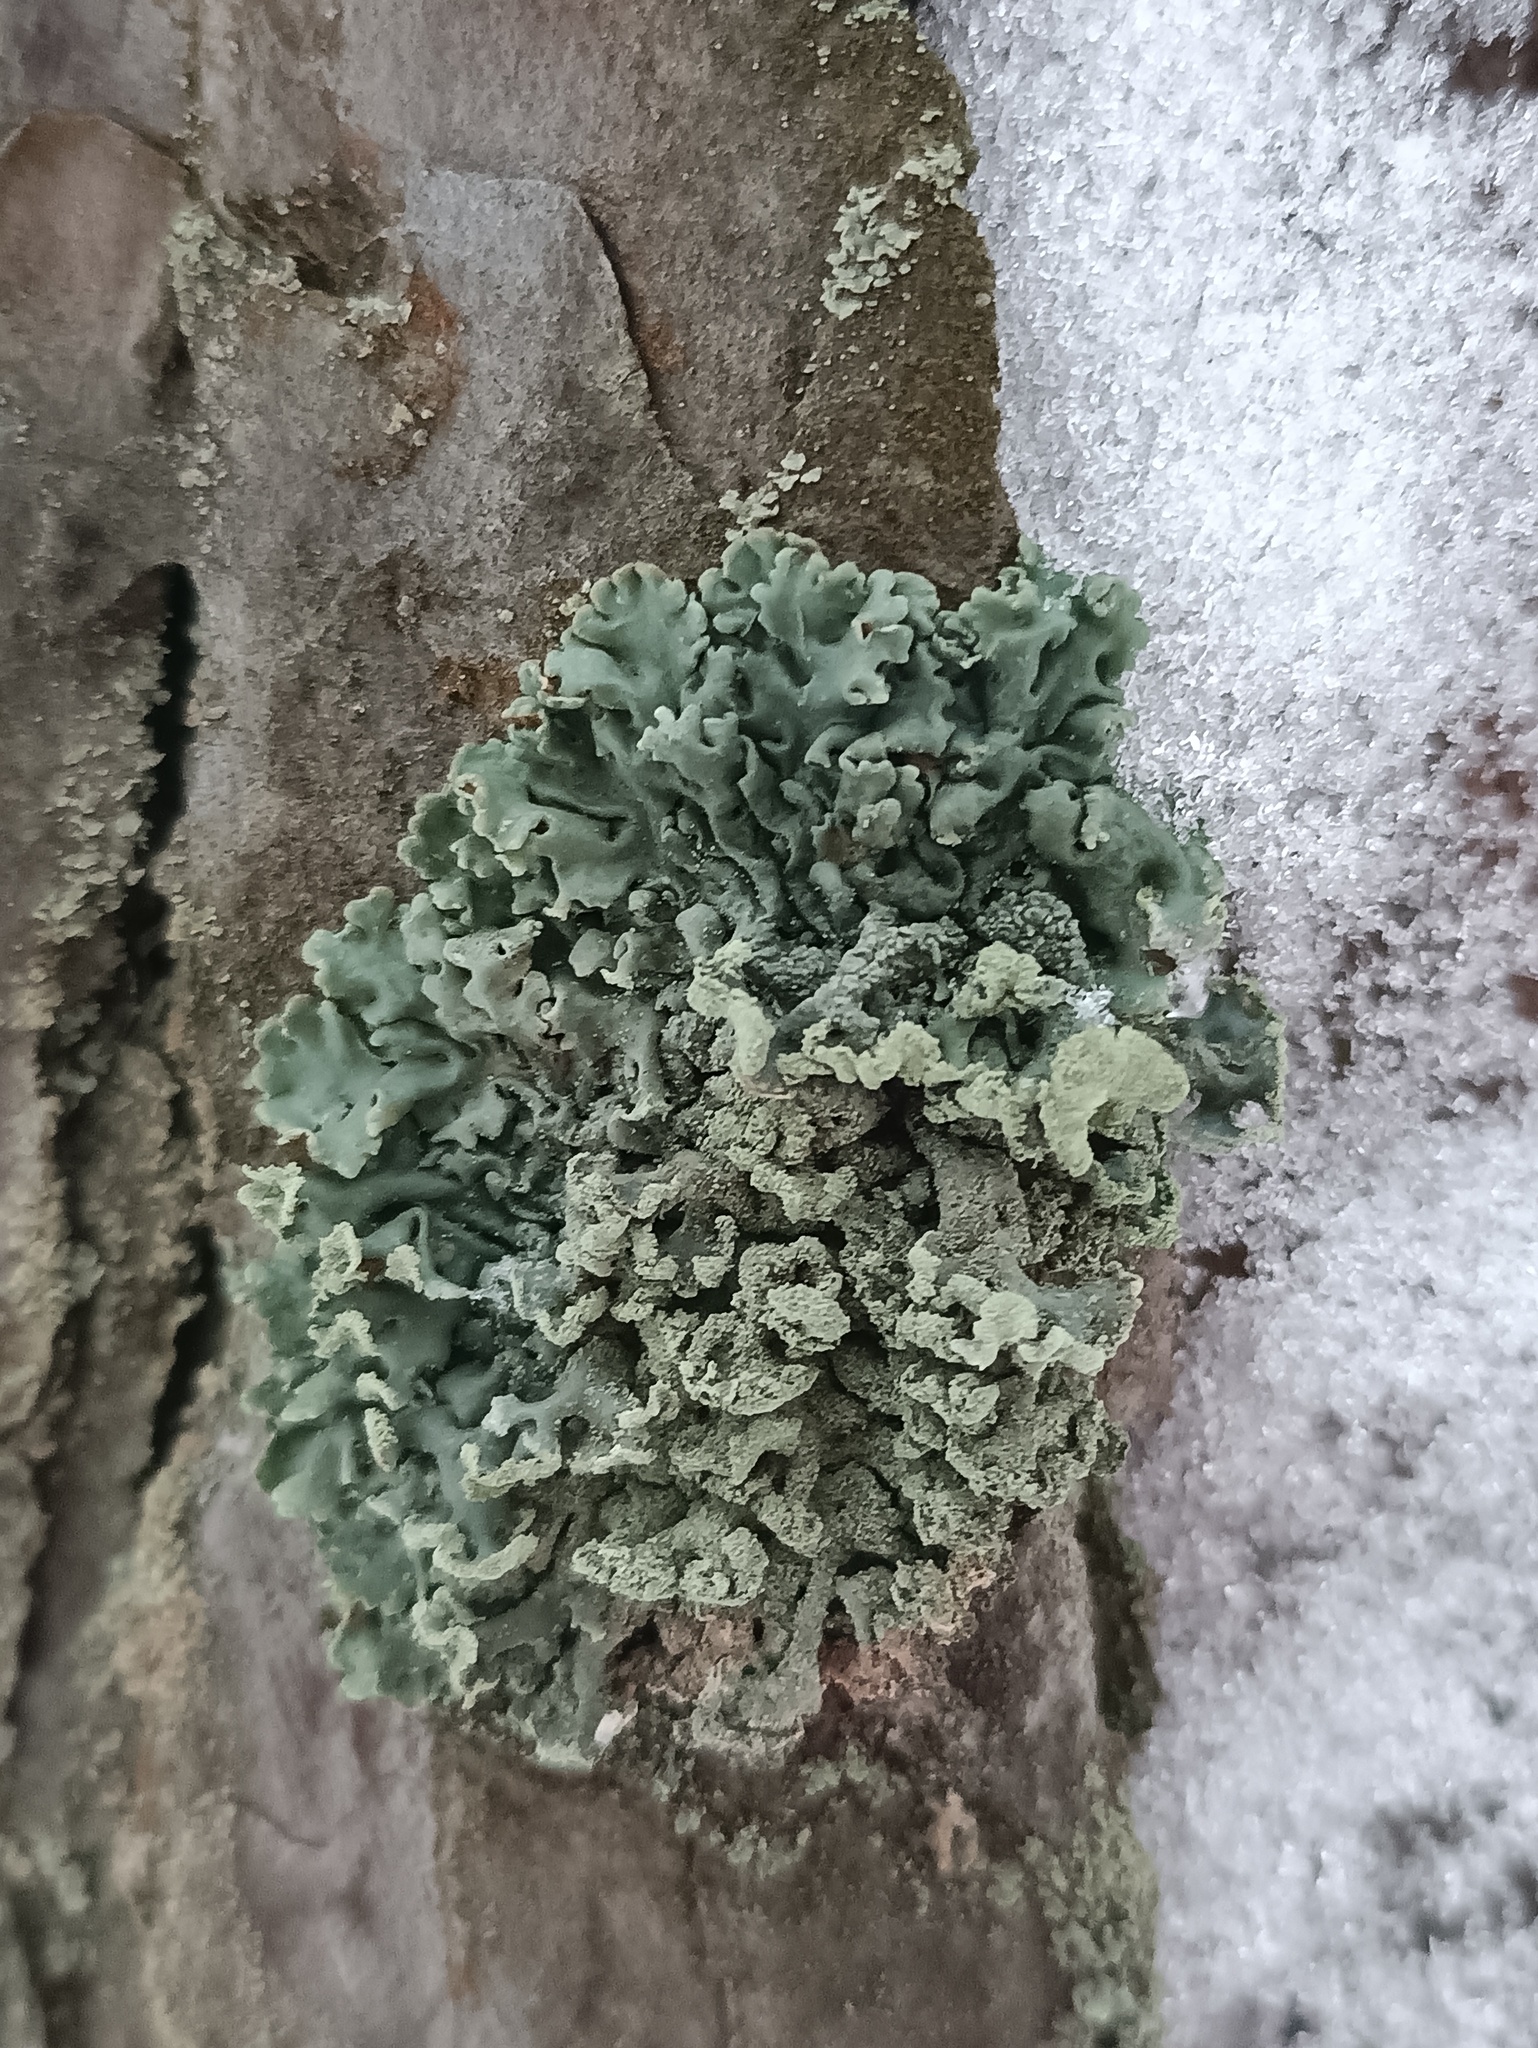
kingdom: Fungi
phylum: Ascomycota
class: Lecanoromycetes
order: Lecanorales
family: Parmeliaceae
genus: Hypogymnia
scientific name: Hypogymnia physodes
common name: Dark crottle
